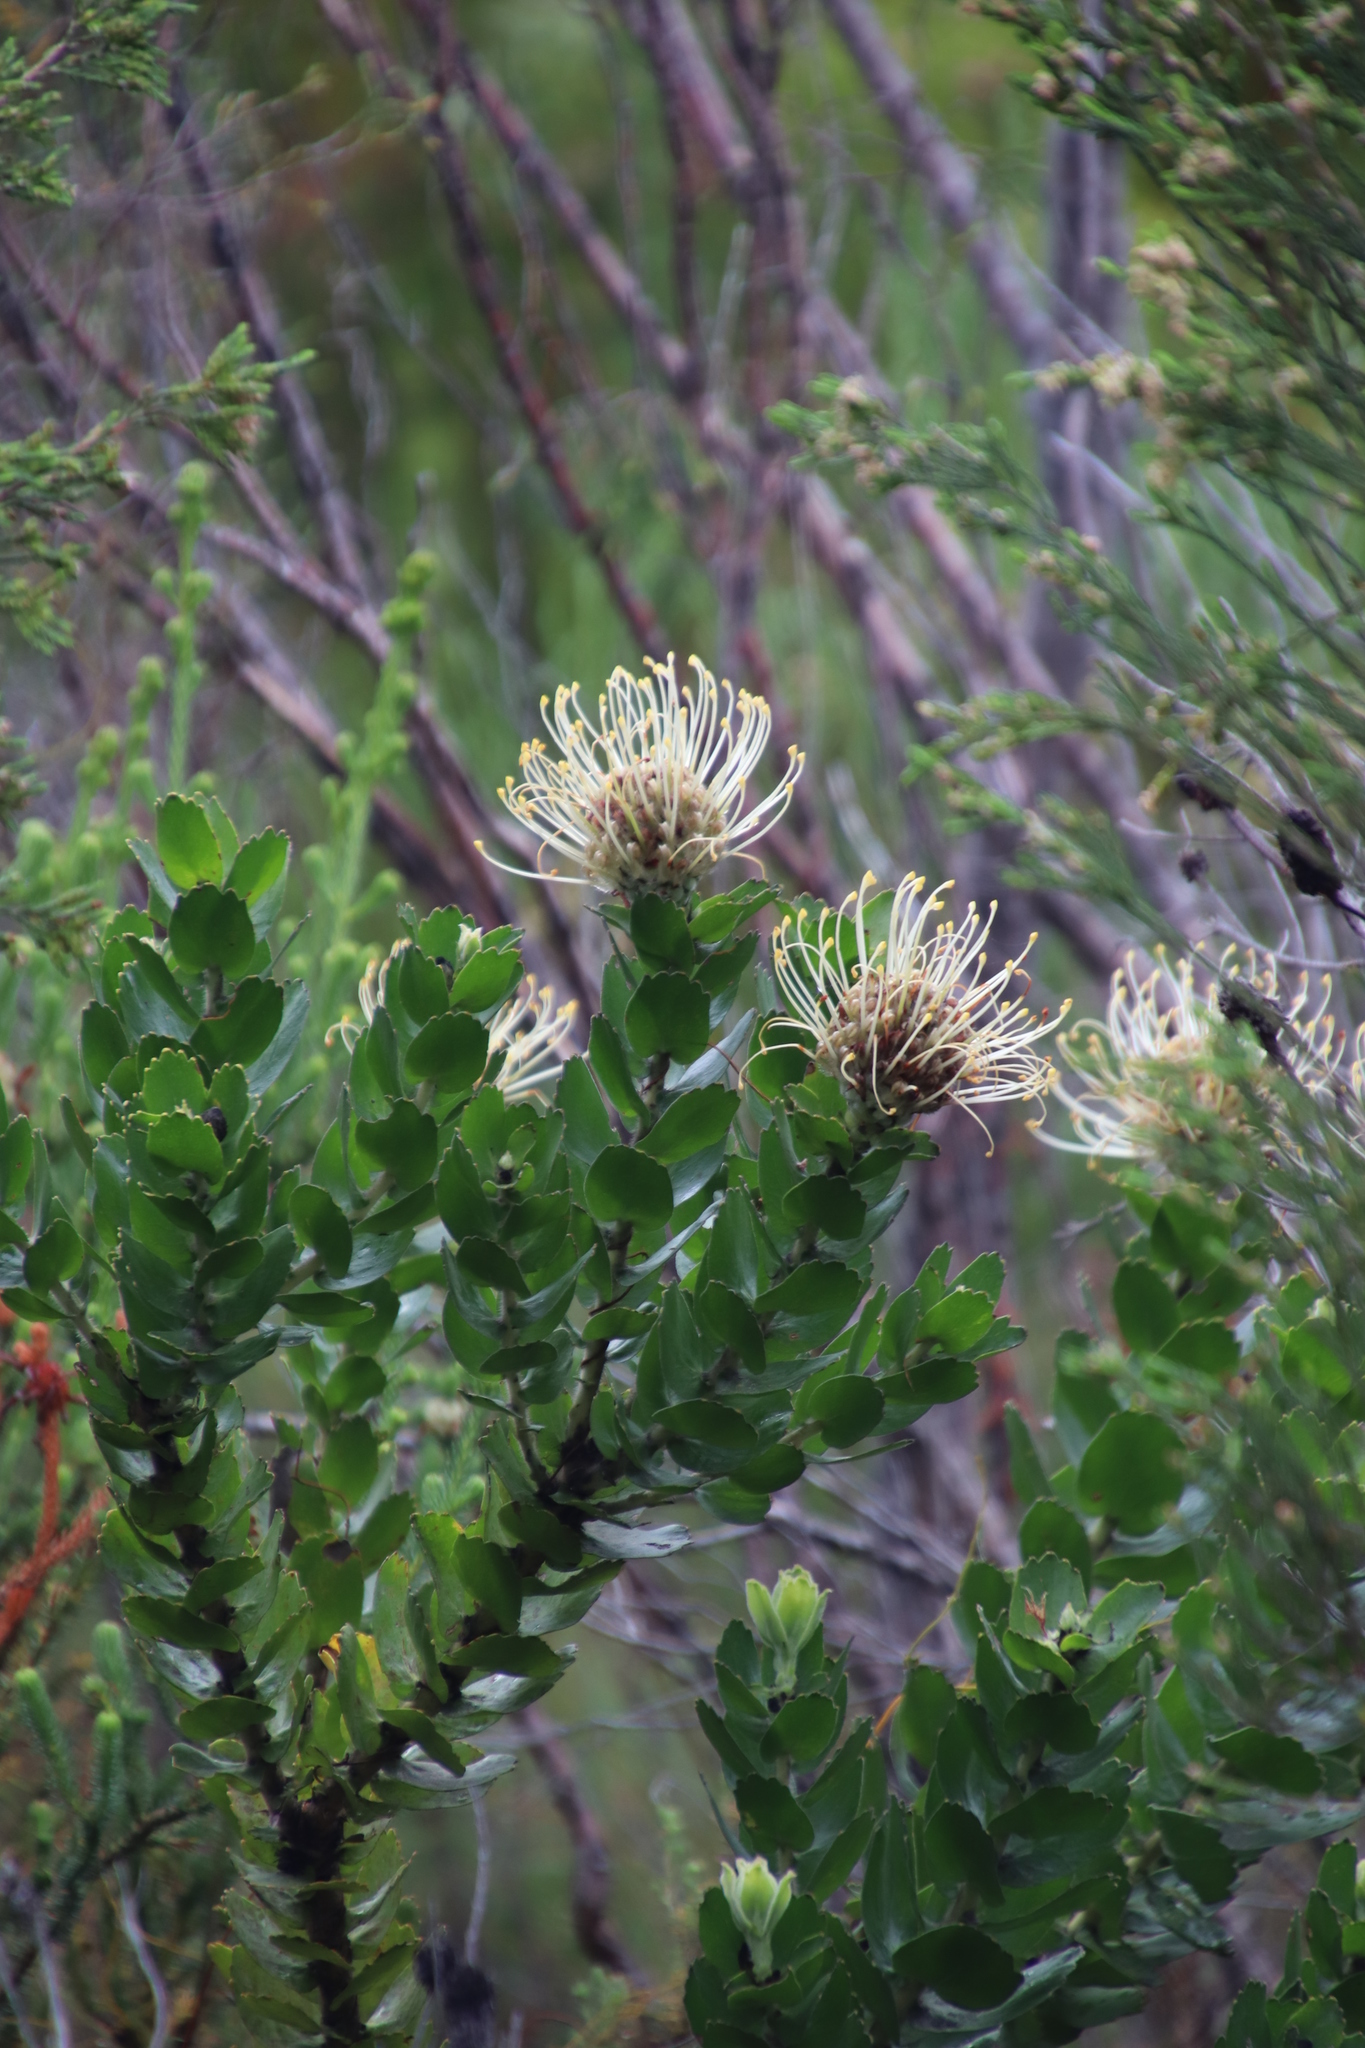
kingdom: Plantae
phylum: Tracheophyta
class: Magnoliopsida
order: Proteales
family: Proteaceae
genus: Leucospermum
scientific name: Leucospermum patersonii
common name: False tree pincushion
